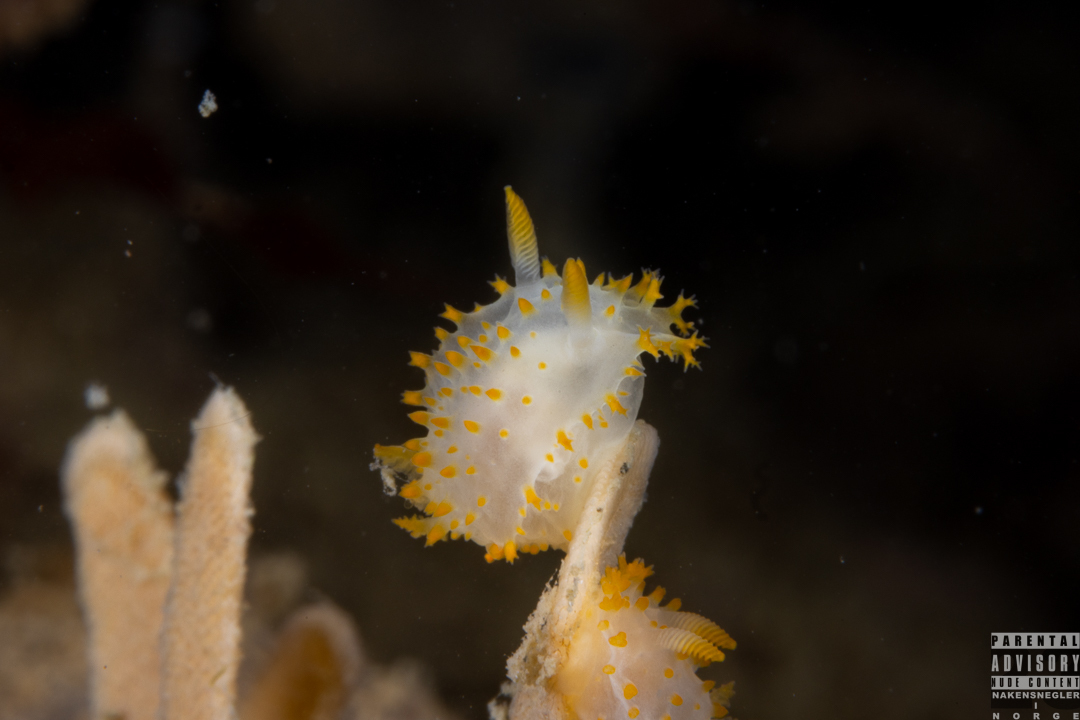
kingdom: Animalia
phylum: Mollusca
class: Gastropoda
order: Nudibranchia
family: Polyceridae
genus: Crimora
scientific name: Crimora papillata
